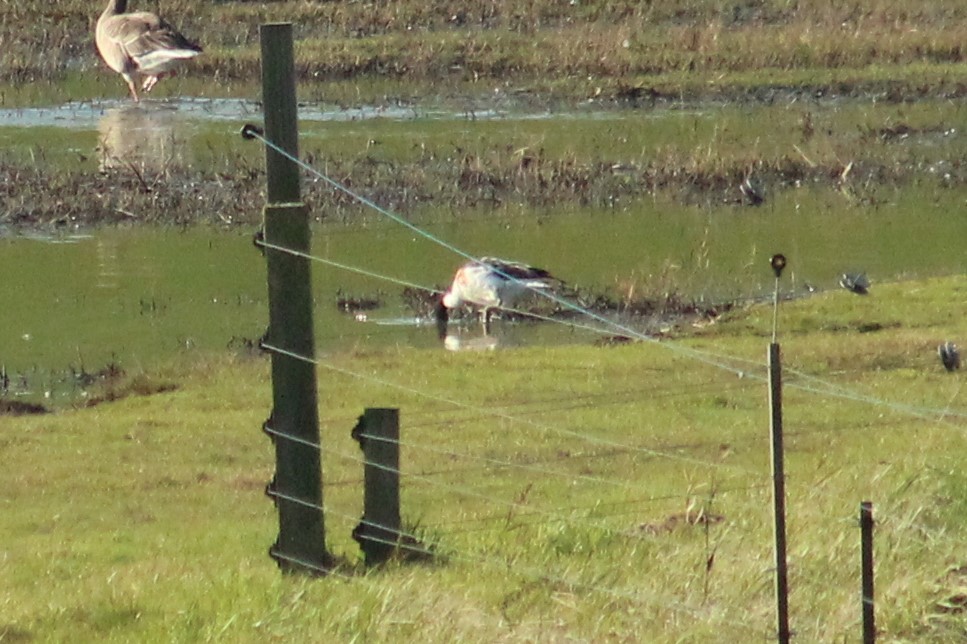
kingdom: Animalia
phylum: Chordata
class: Aves
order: Anseriformes
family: Anatidae
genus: Tadorna
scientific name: Tadorna tadorna
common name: Common shelduck
